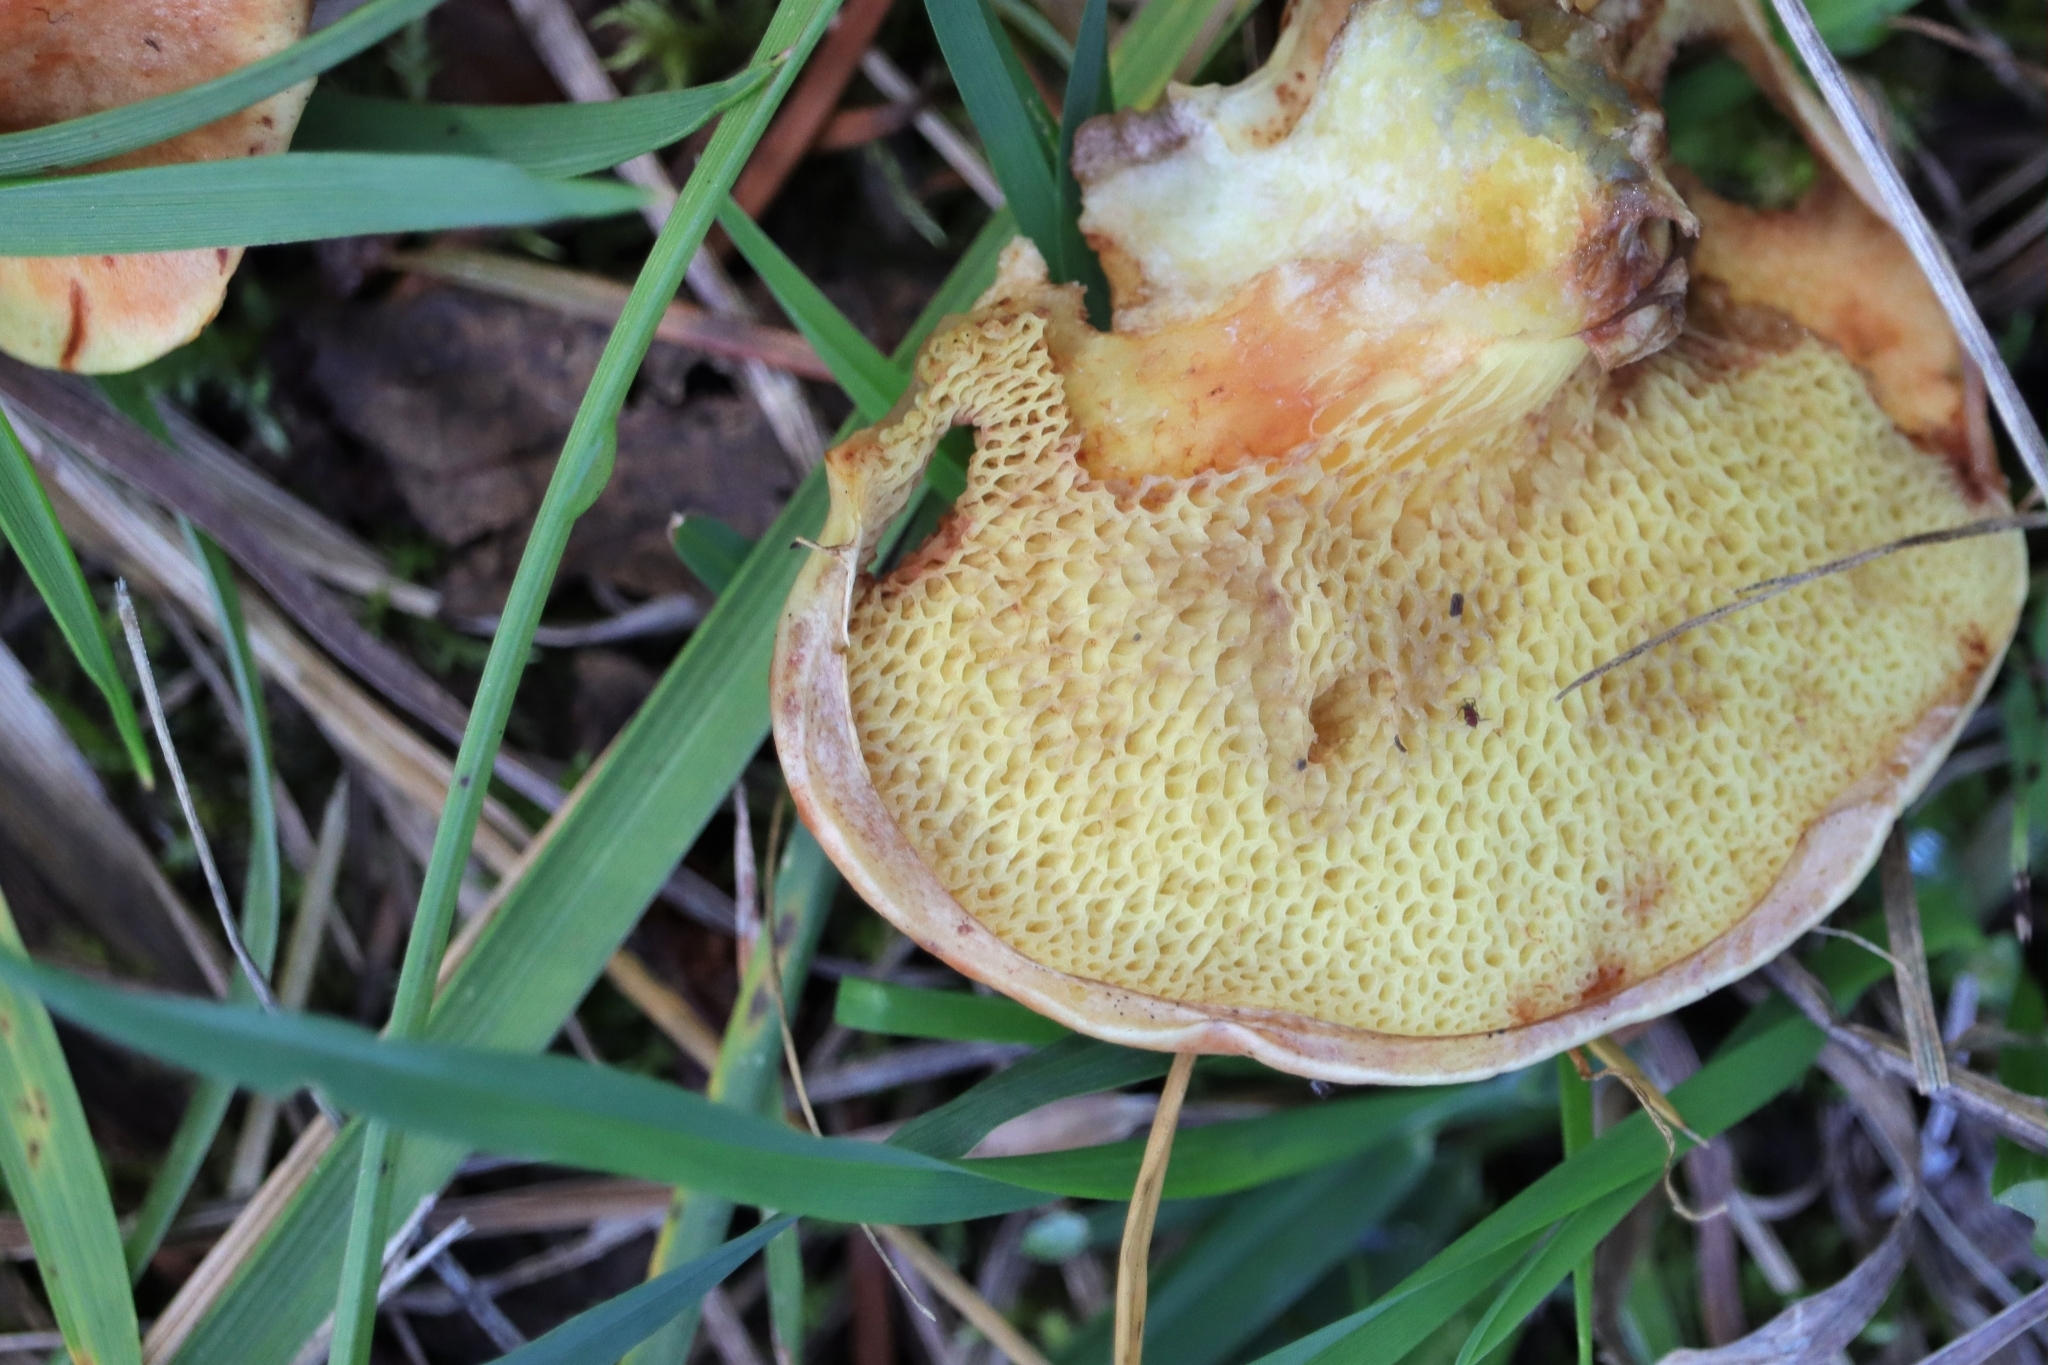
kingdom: Fungi
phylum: Basidiomycota
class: Agaricomycetes
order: Boletales
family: Suillaceae
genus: Suillus
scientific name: Suillus caerulescens
